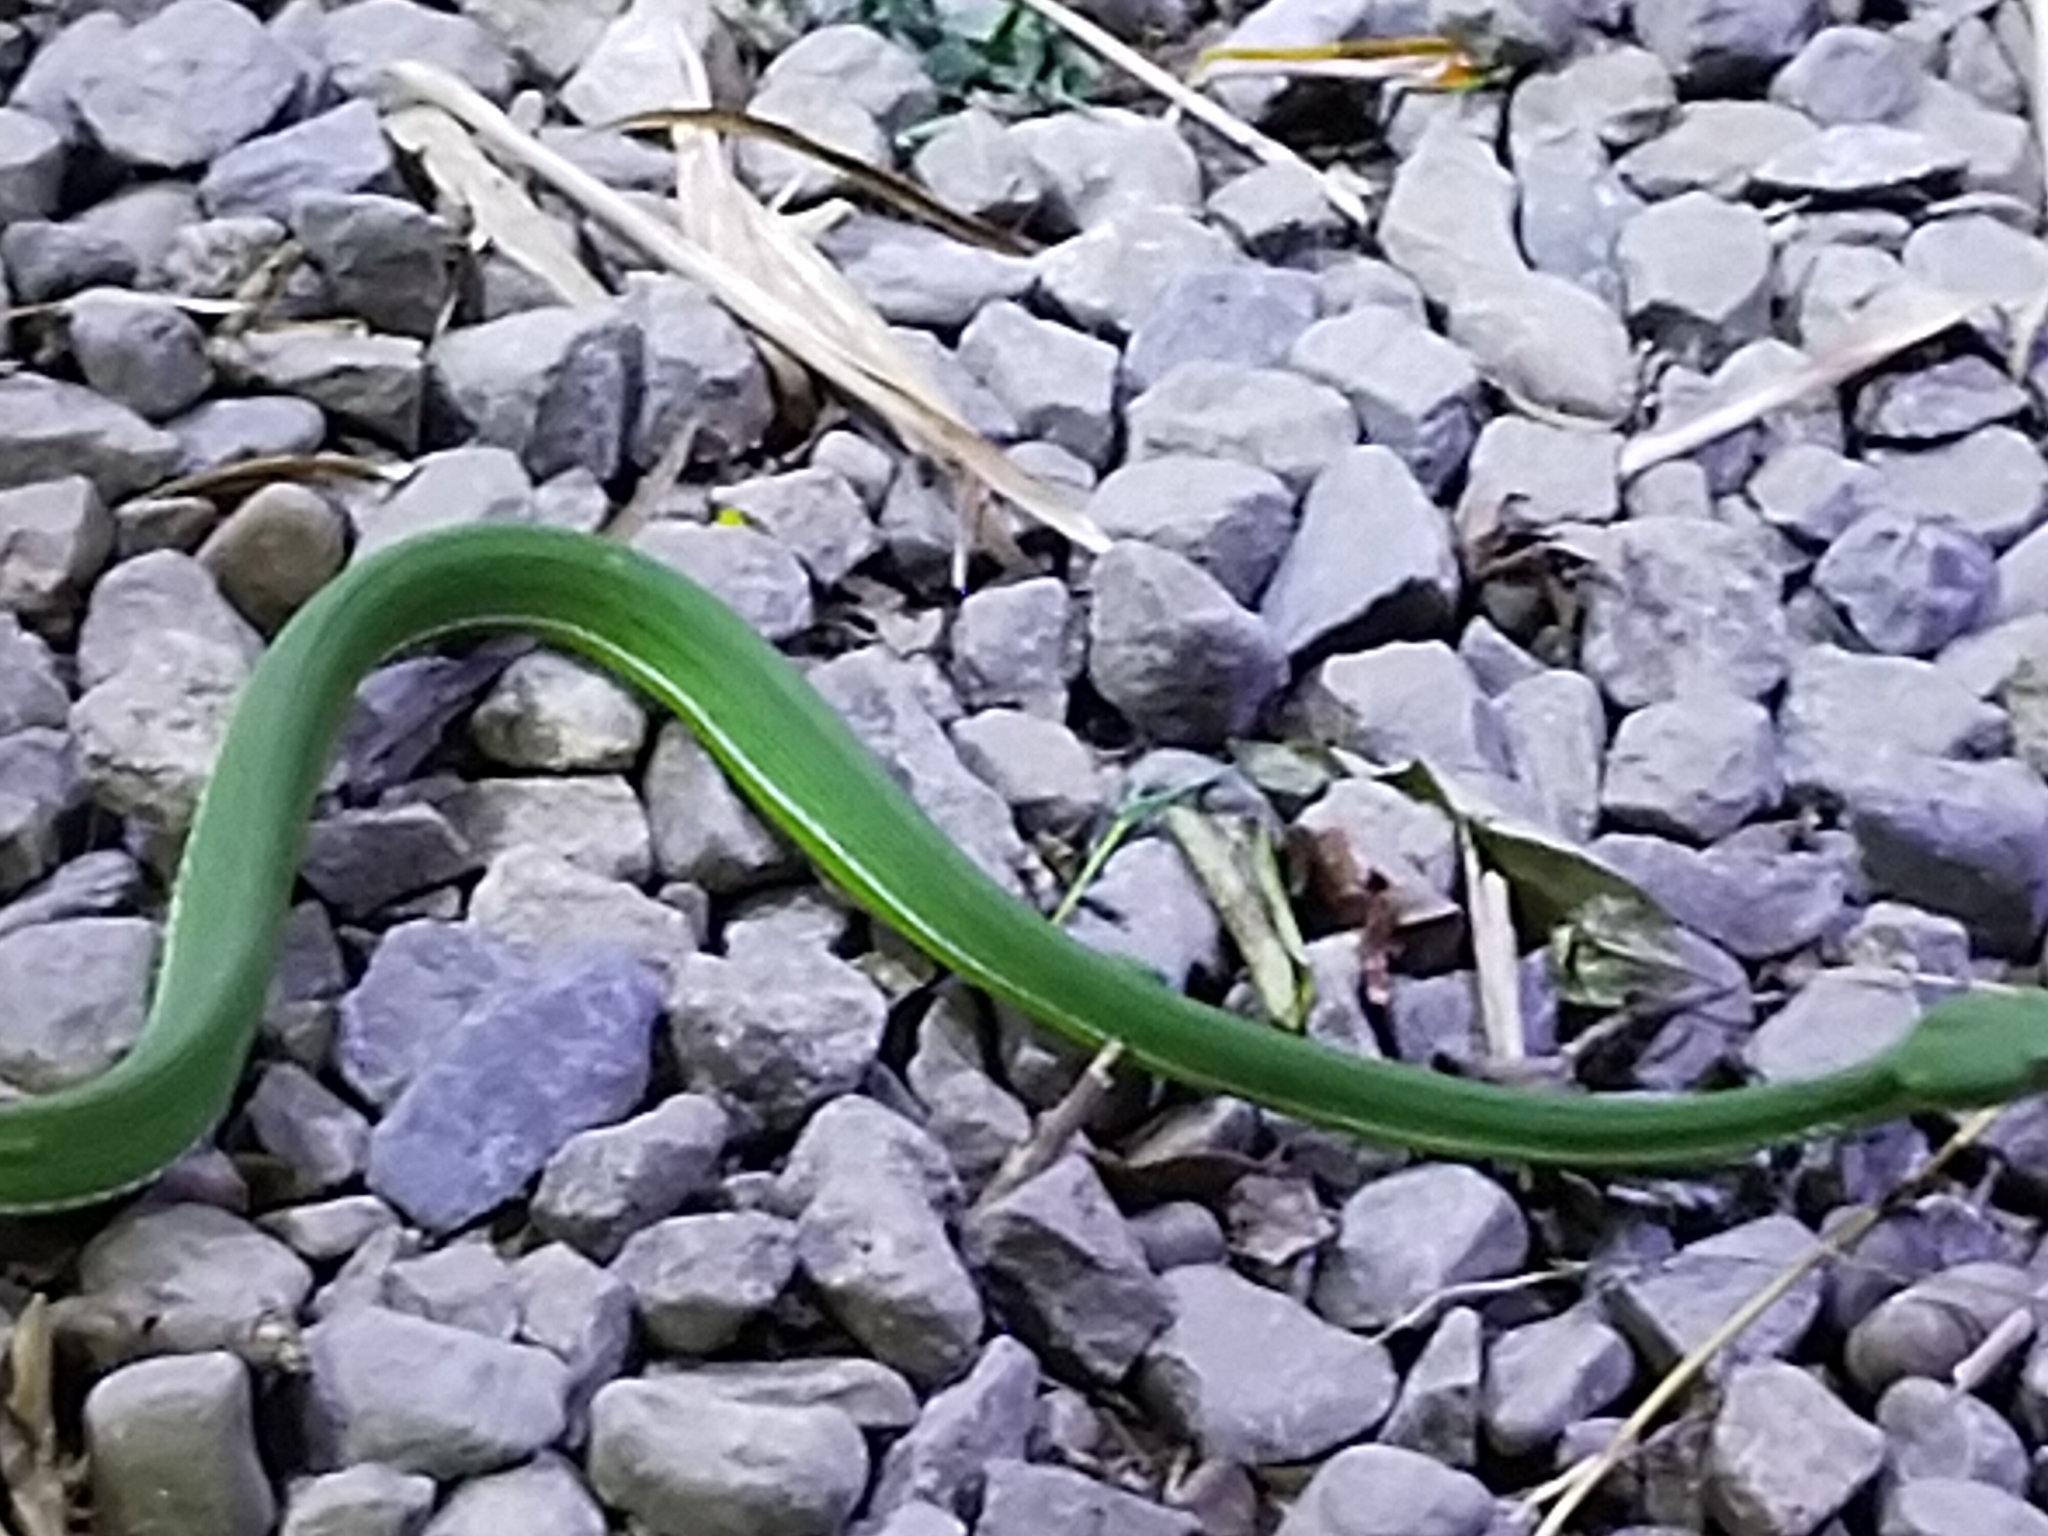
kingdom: Animalia
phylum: Chordata
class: Squamata
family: Viperidae
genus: Trimeresurus
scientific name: Trimeresurus stejnegeri
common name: Chen’s bamboo pit viper
